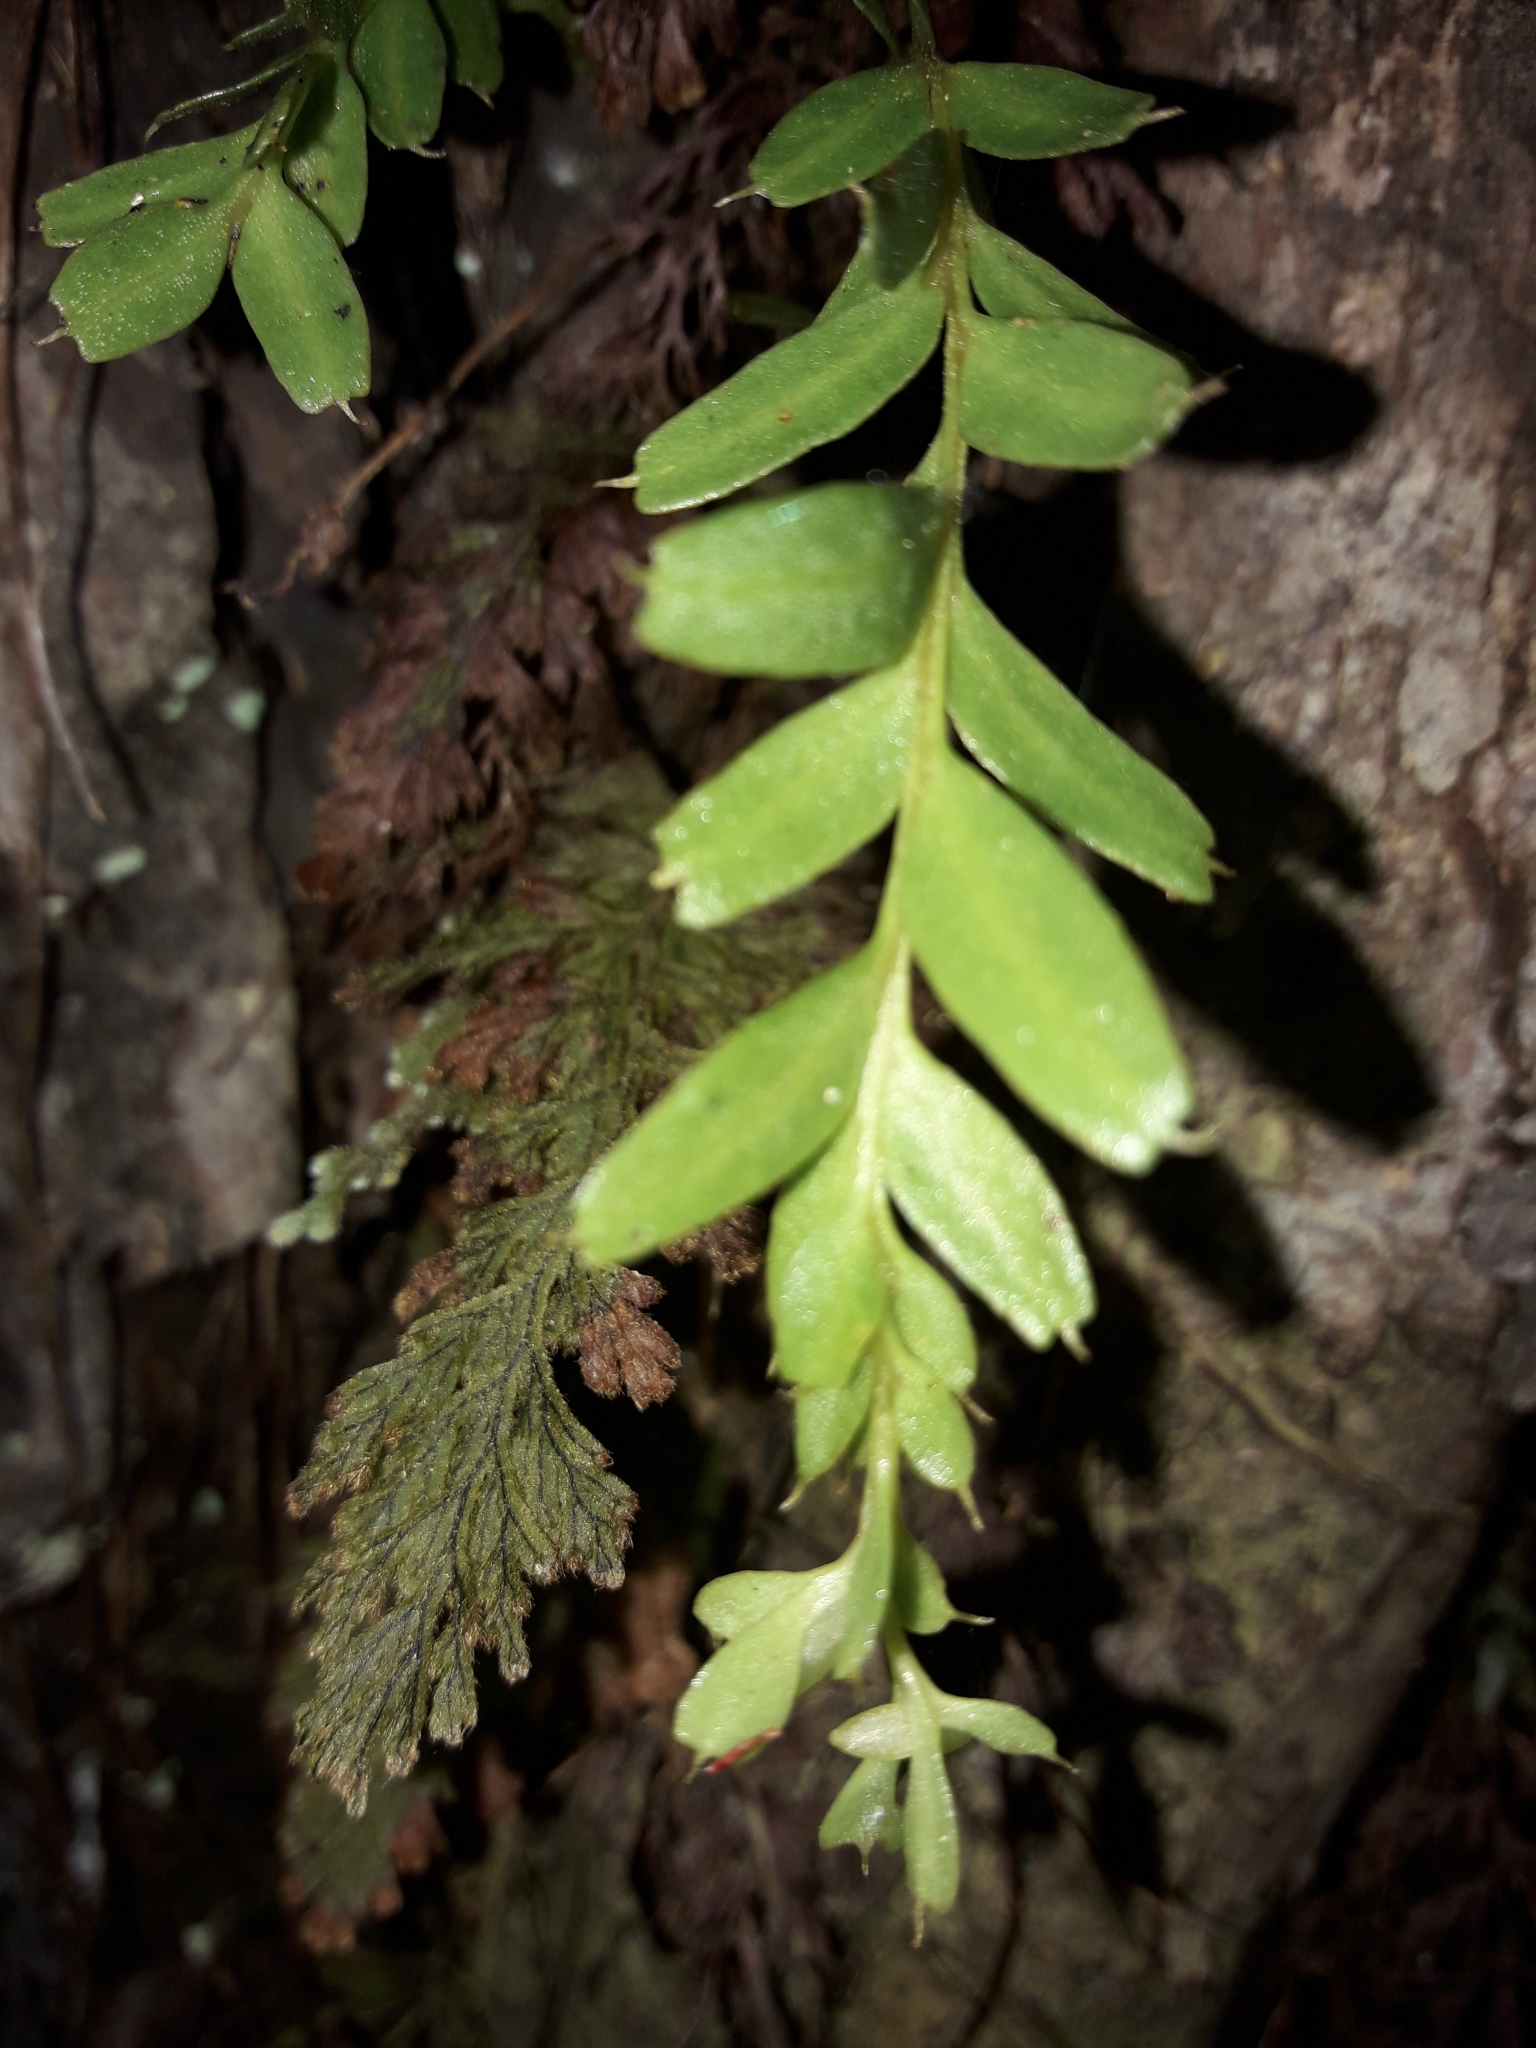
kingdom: Plantae
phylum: Tracheophyta
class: Polypodiopsida
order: Psilotales
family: Psilotaceae
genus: Tmesipteris
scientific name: Tmesipteris tannensis
